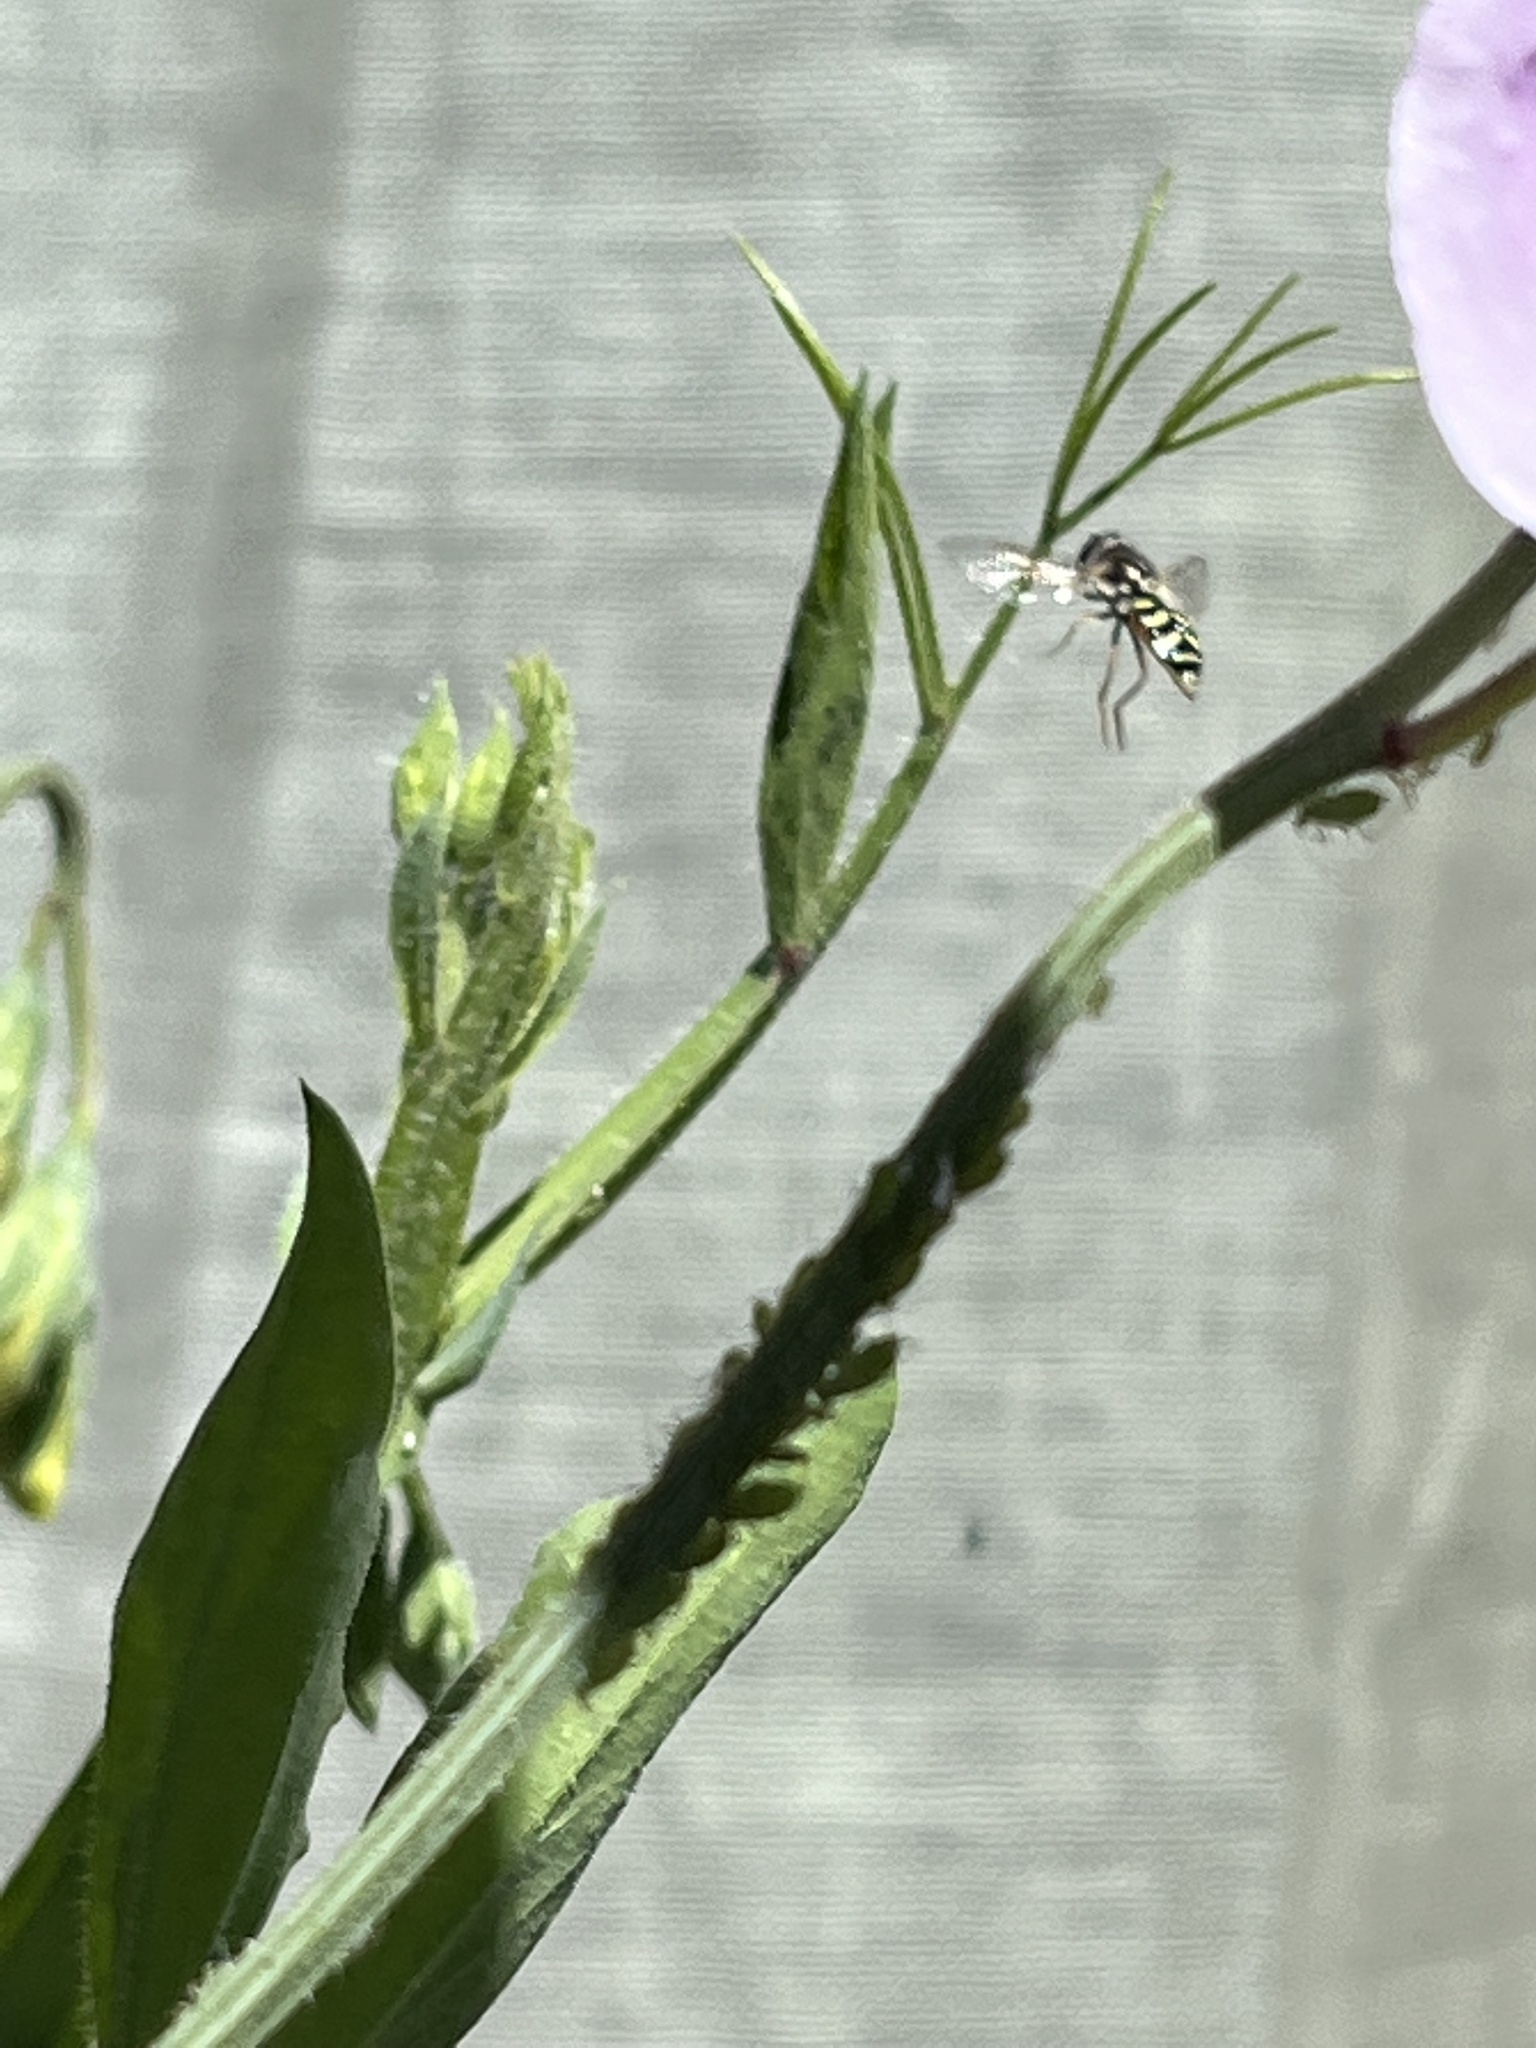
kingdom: Animalia
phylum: Arthropoda
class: Insecta
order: Diptera
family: Syrphidae
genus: Eupeodes
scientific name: Eupeodes volucris
